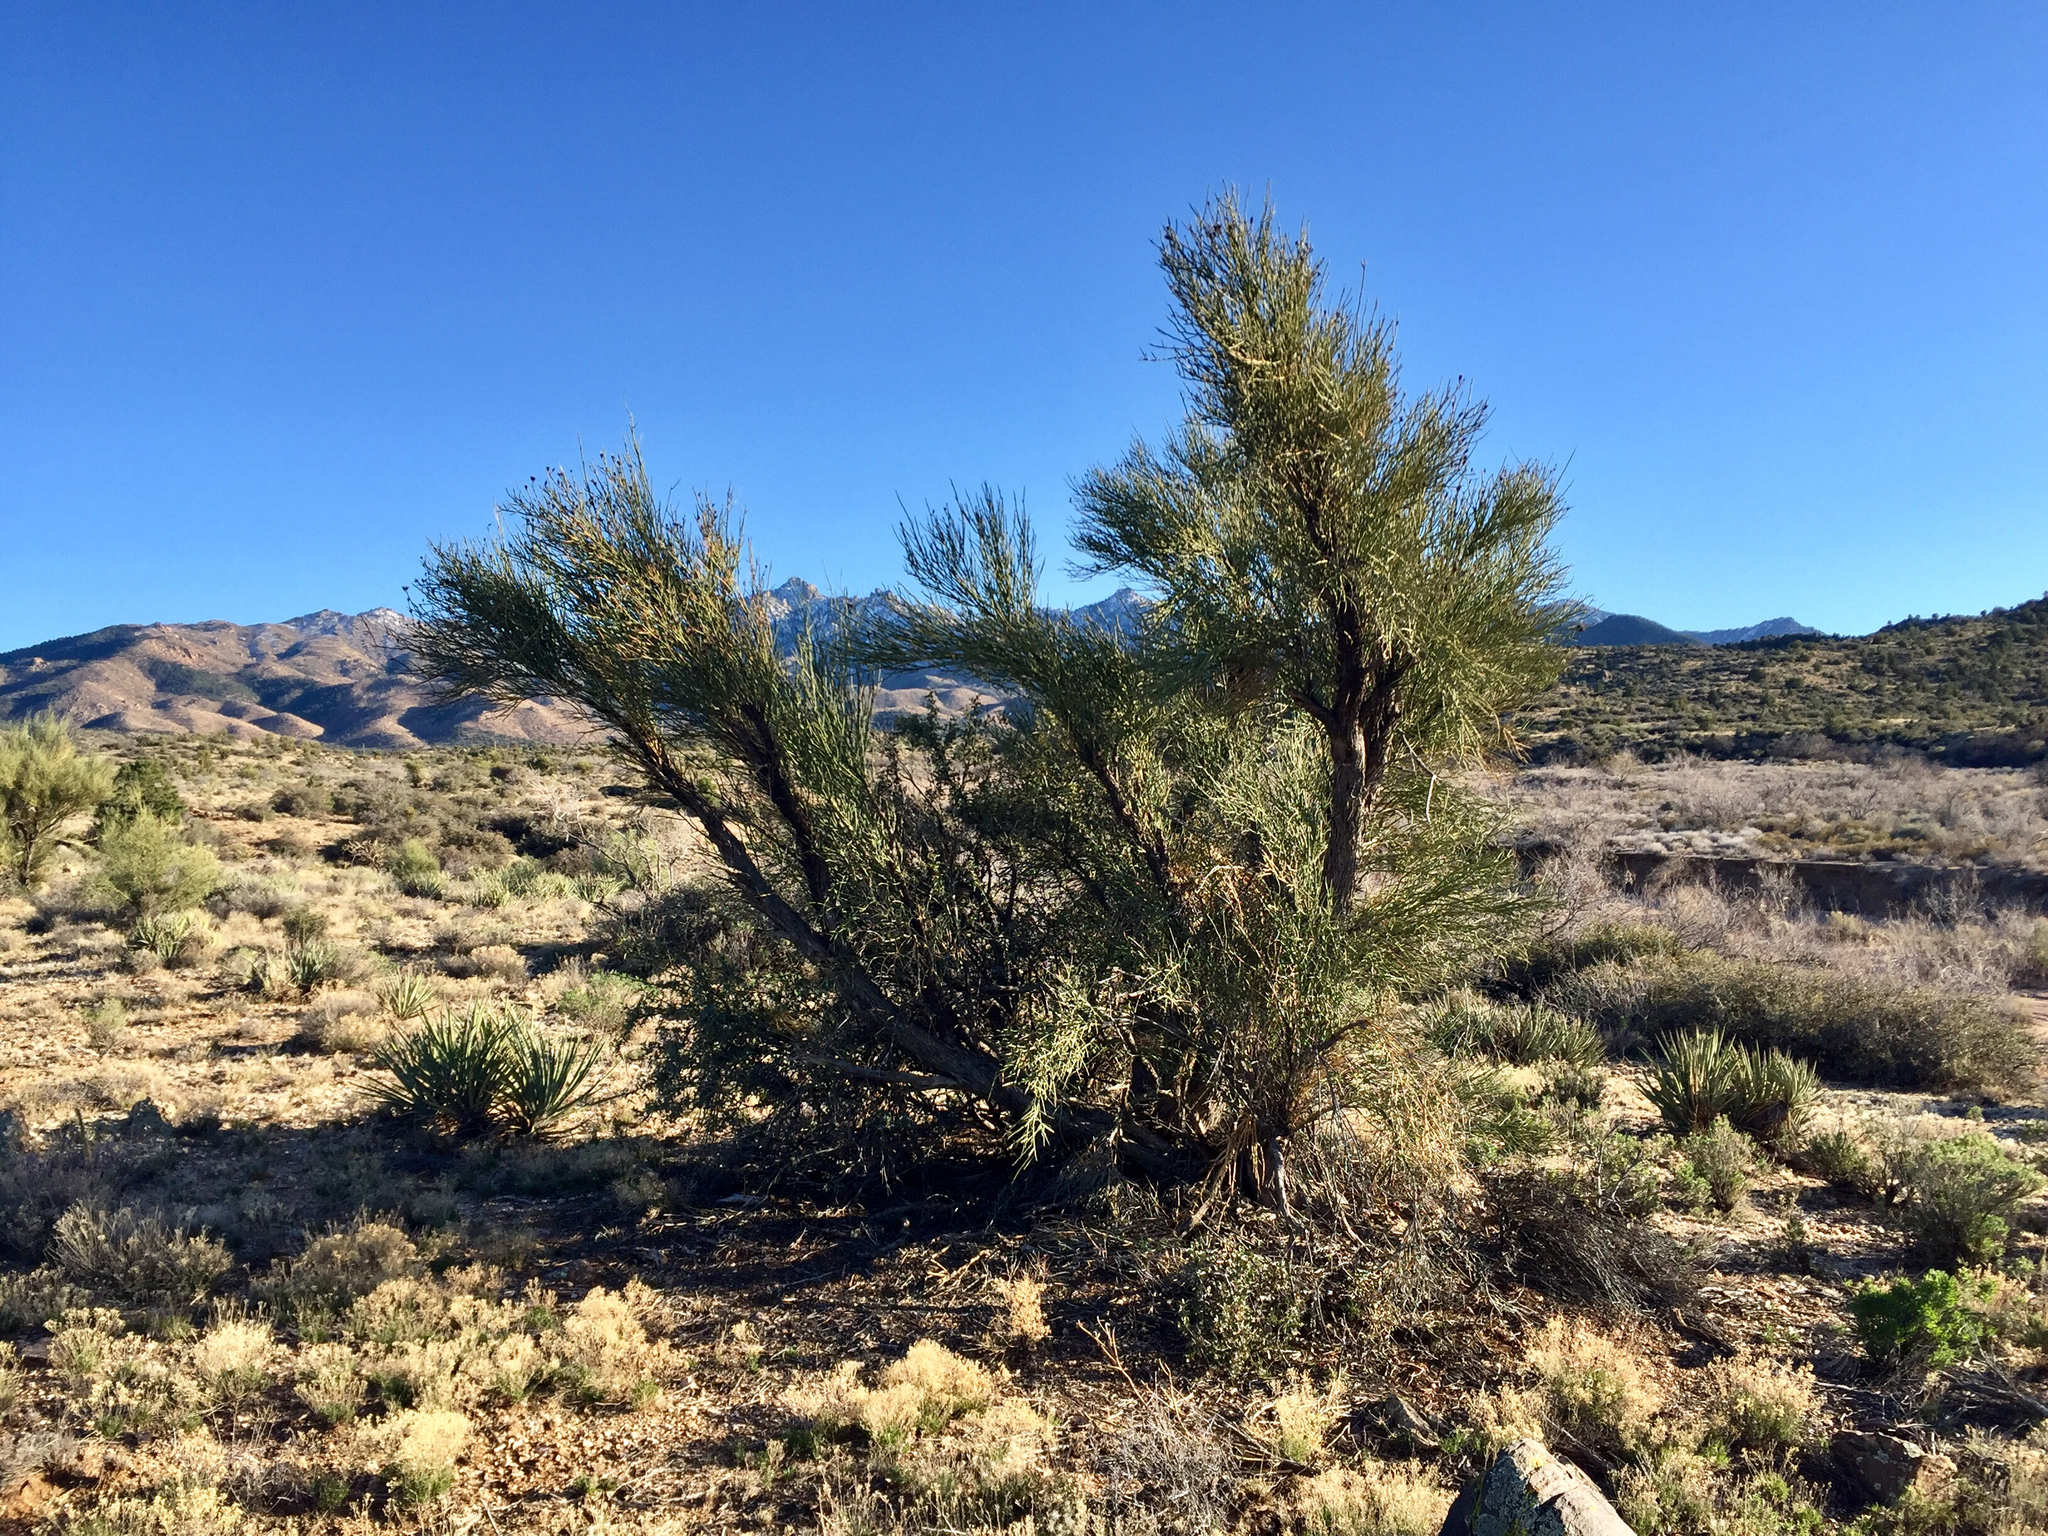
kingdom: Plantae
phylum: Tracheophyta
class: Magnoliopsida
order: Celastrales
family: Celastraceae
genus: Canotia
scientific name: Canotia holacantha
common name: Crucifixion thorns
